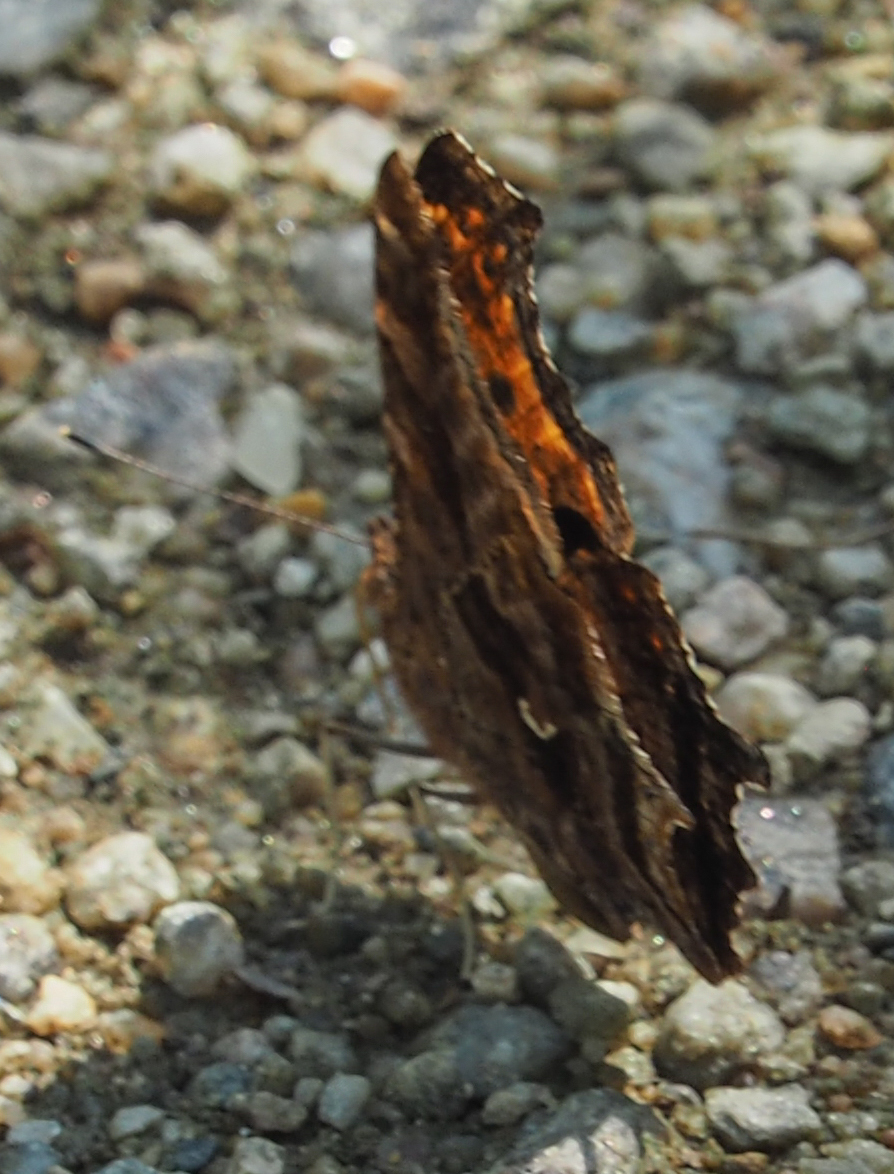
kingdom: Animalia
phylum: Arthropoda
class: Insecta
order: Lepidoptera
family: Nymphalidae
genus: Polygonia
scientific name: Polygonia comma
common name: Eastern comma
